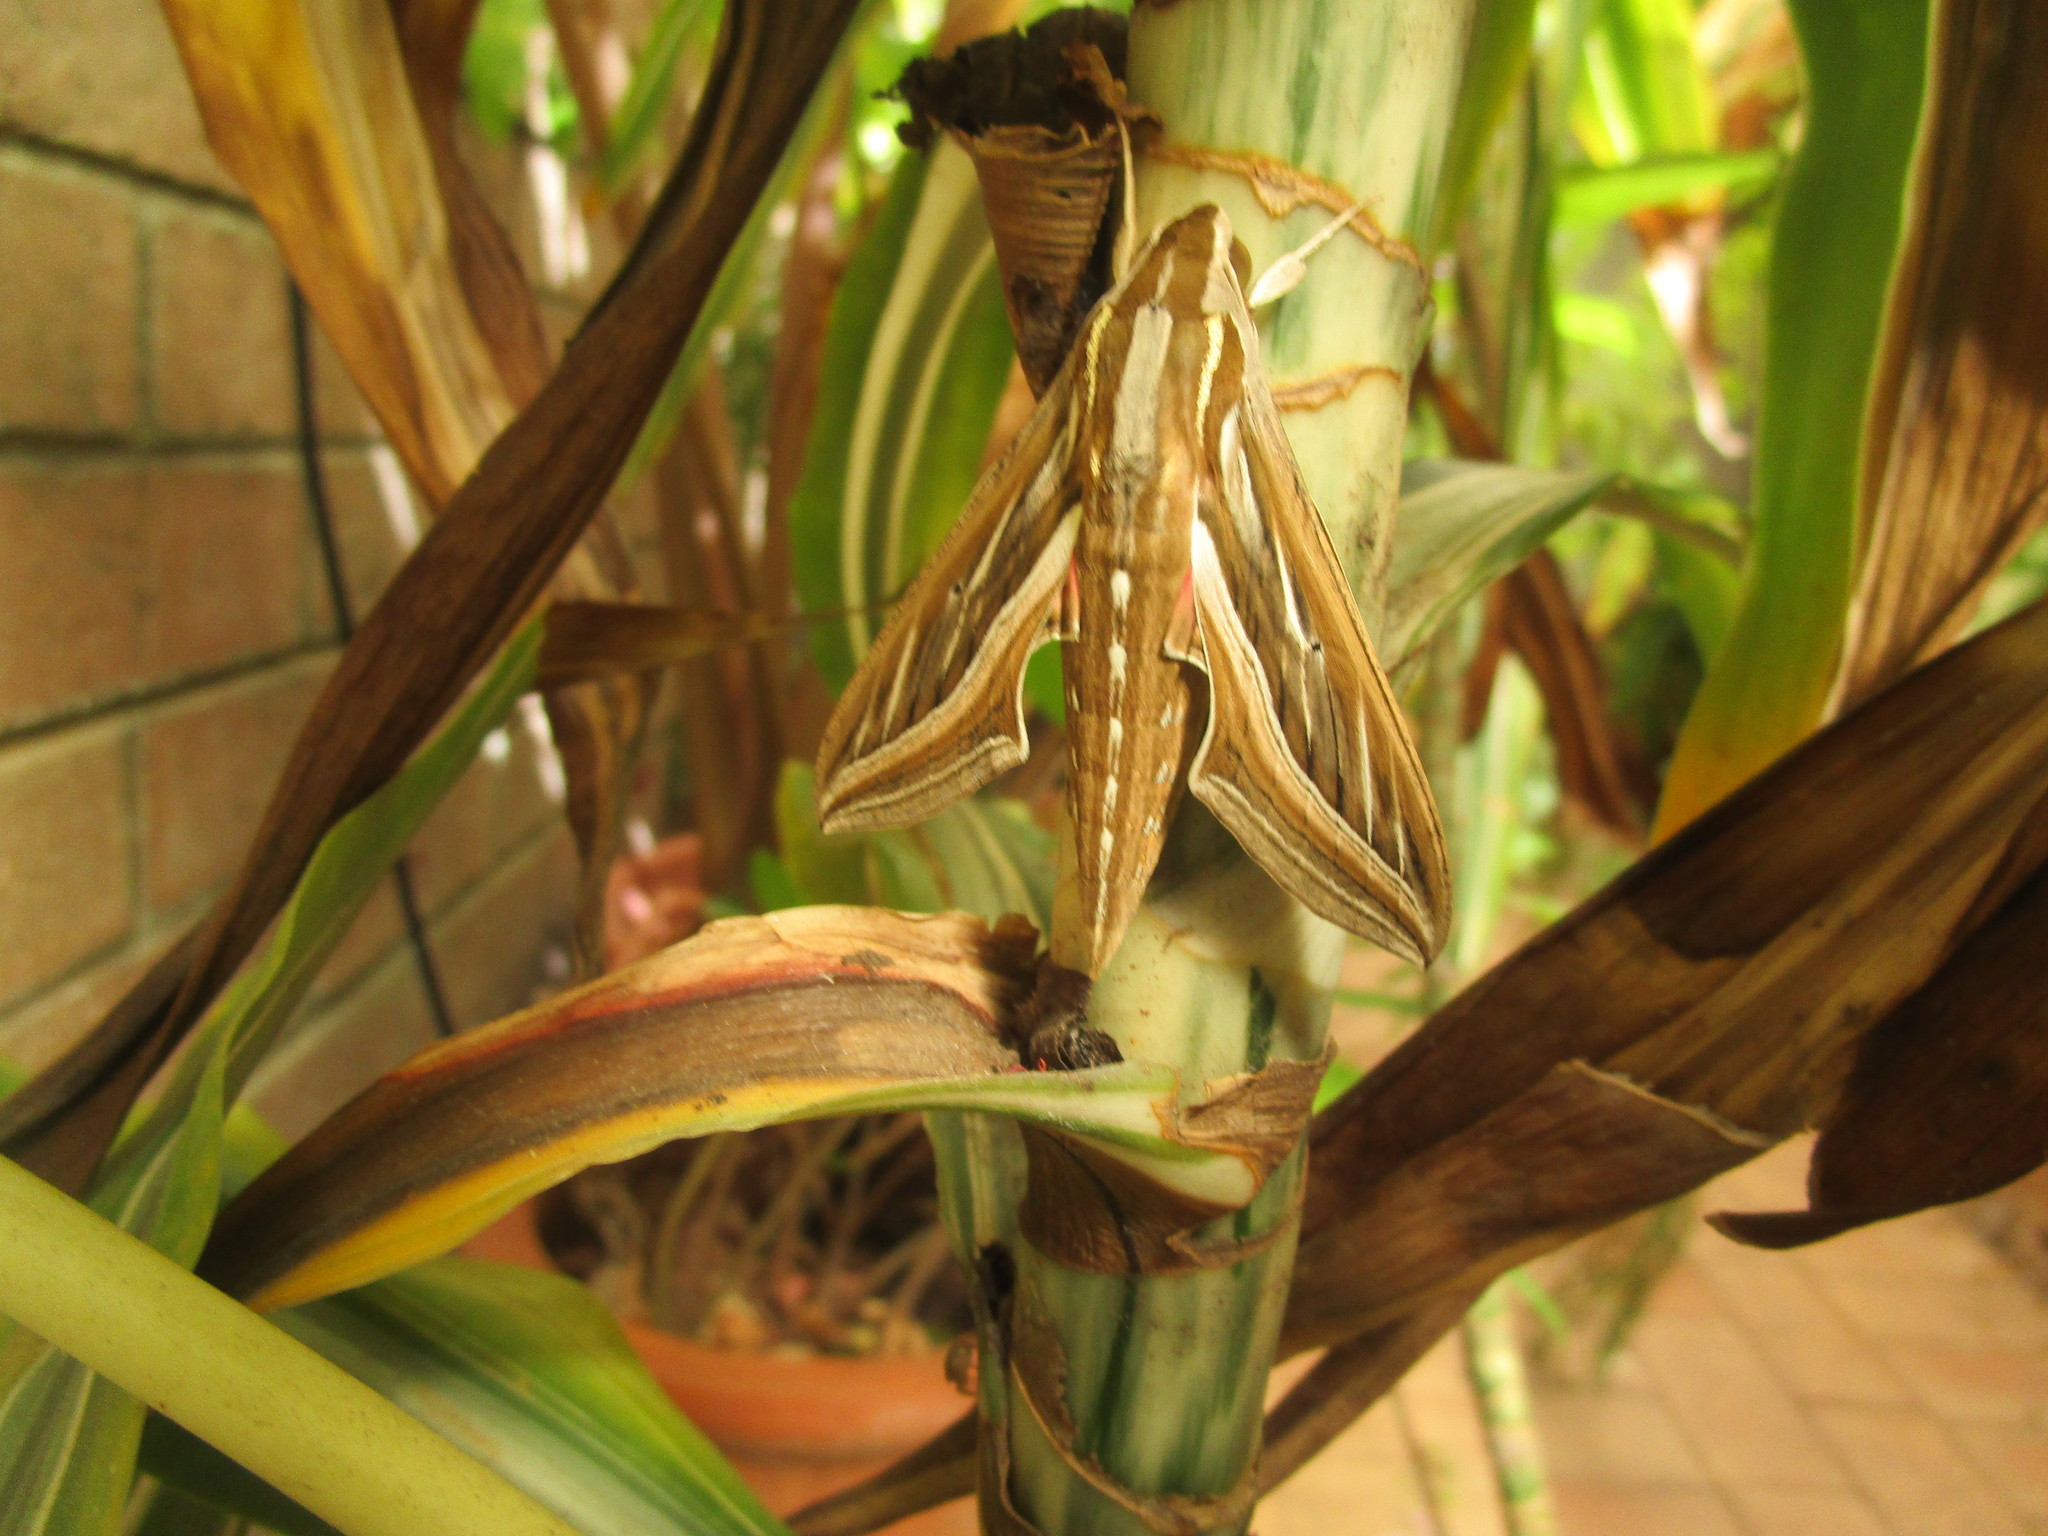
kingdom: Animalia
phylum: Arthropoda
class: Insecta
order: Lepidoptera
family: Sphingidae
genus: Hippotion
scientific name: Hippotion celerio
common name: Silver-striped hawk-moth
